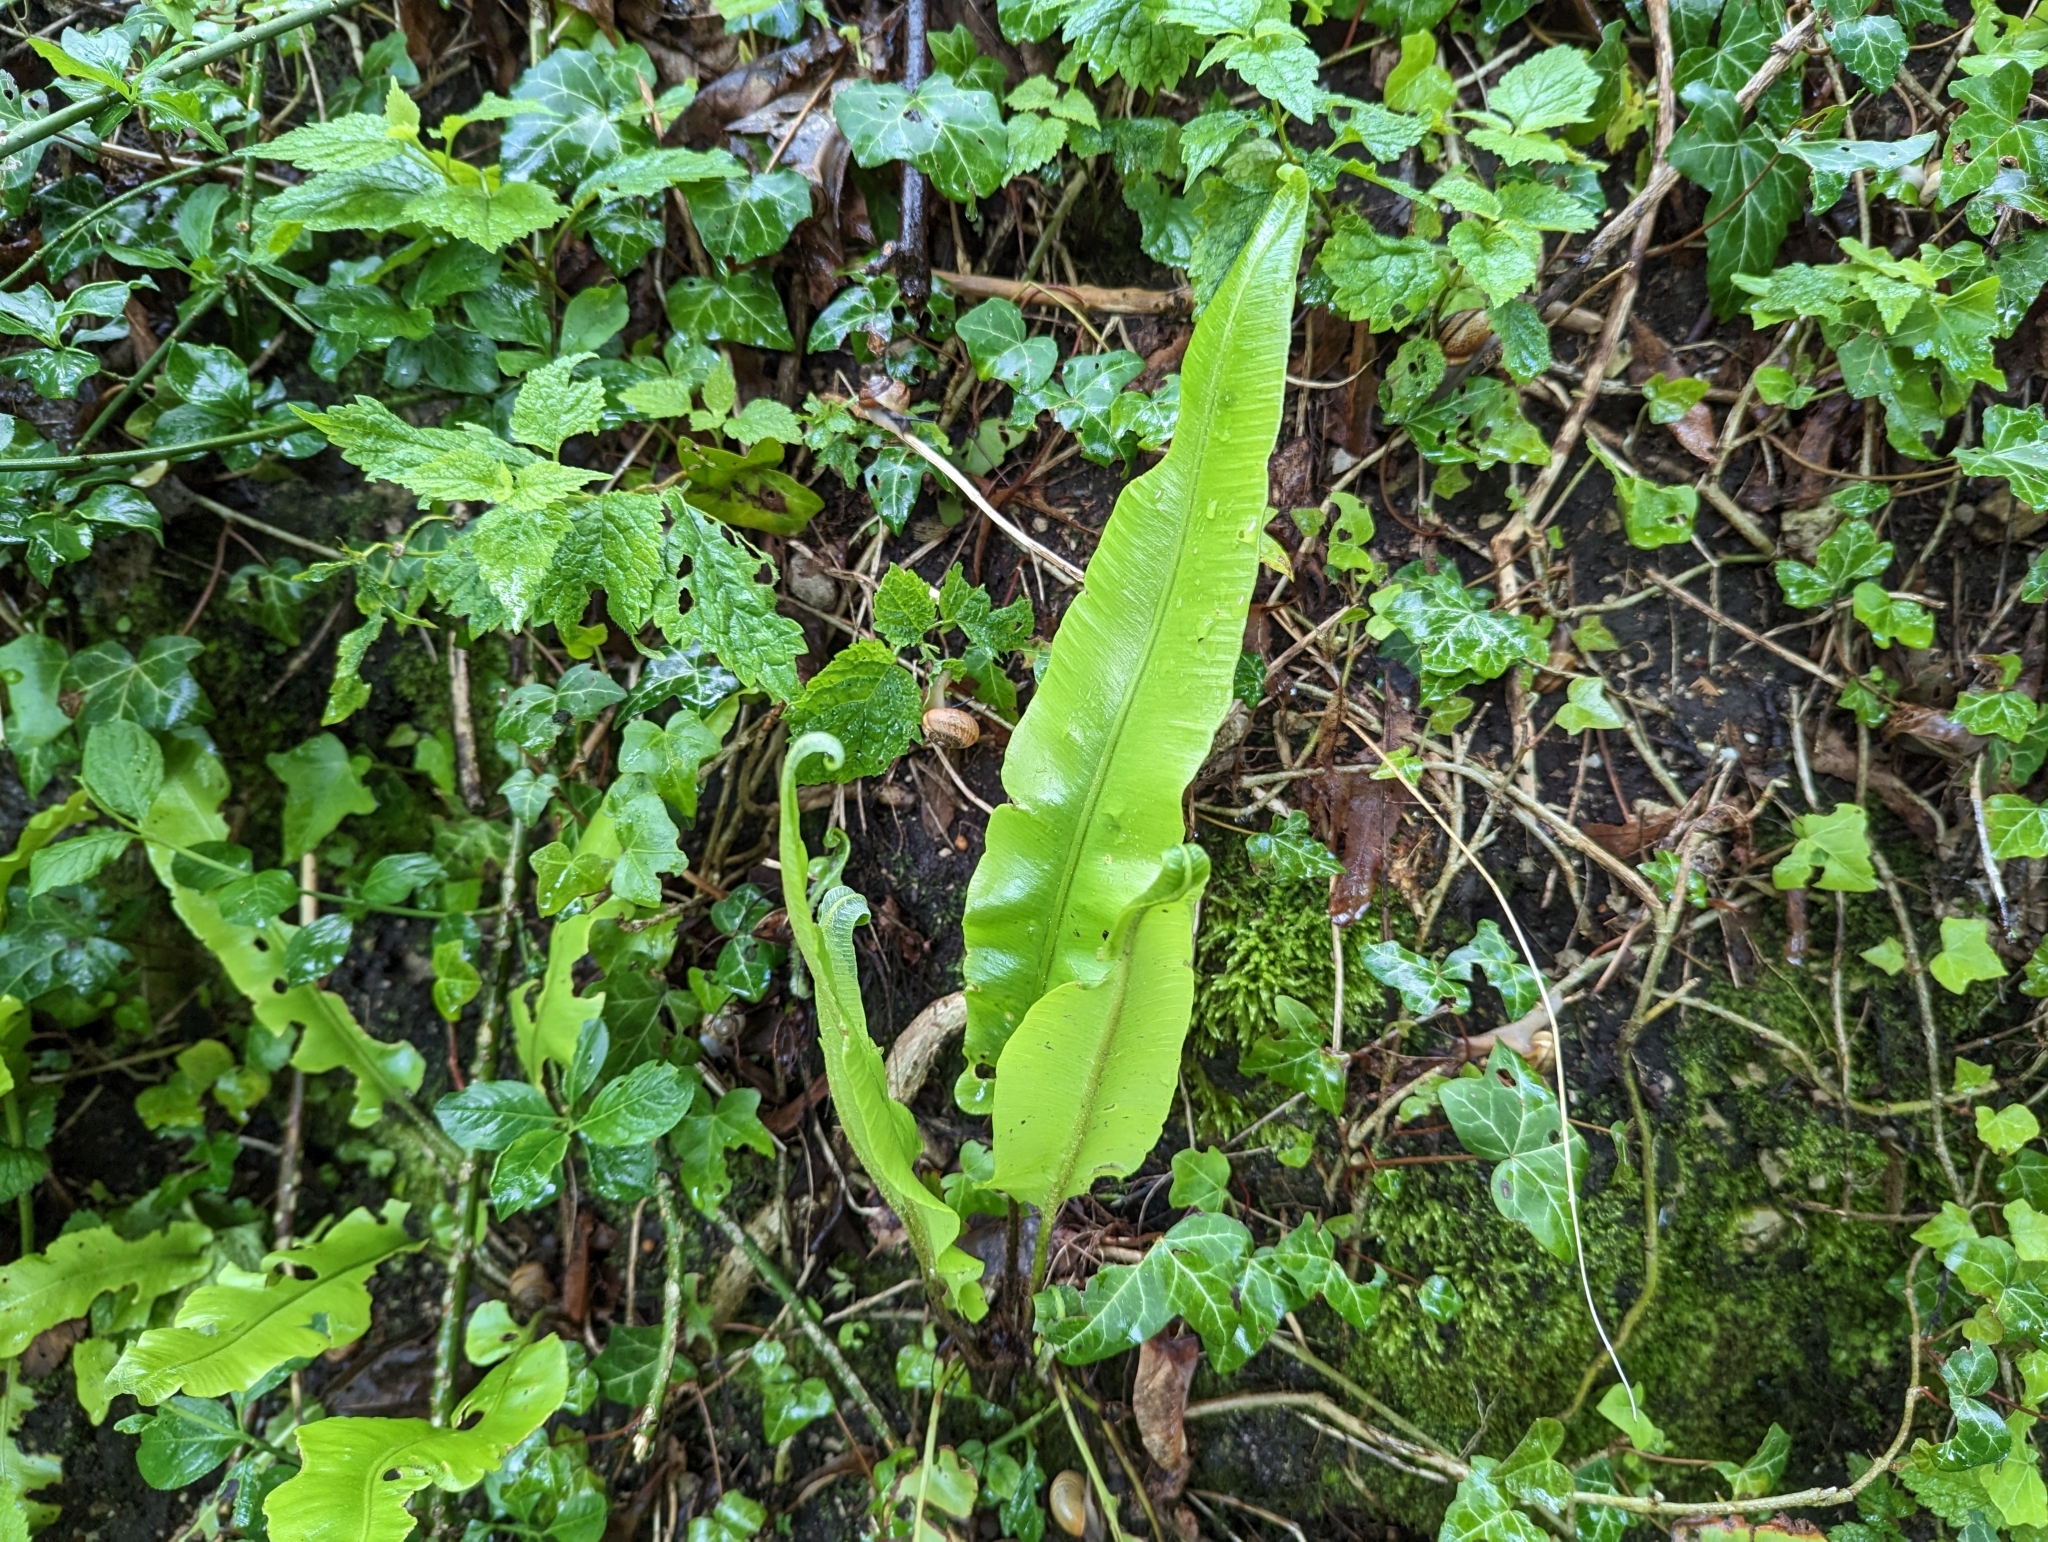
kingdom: Plantae
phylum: Tracheophyta
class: Polypodiopsida
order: Polypodiales
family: Aspleniaceae
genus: Asplenium
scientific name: Asplenium scolopendrium
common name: Hart's-tongue fern
